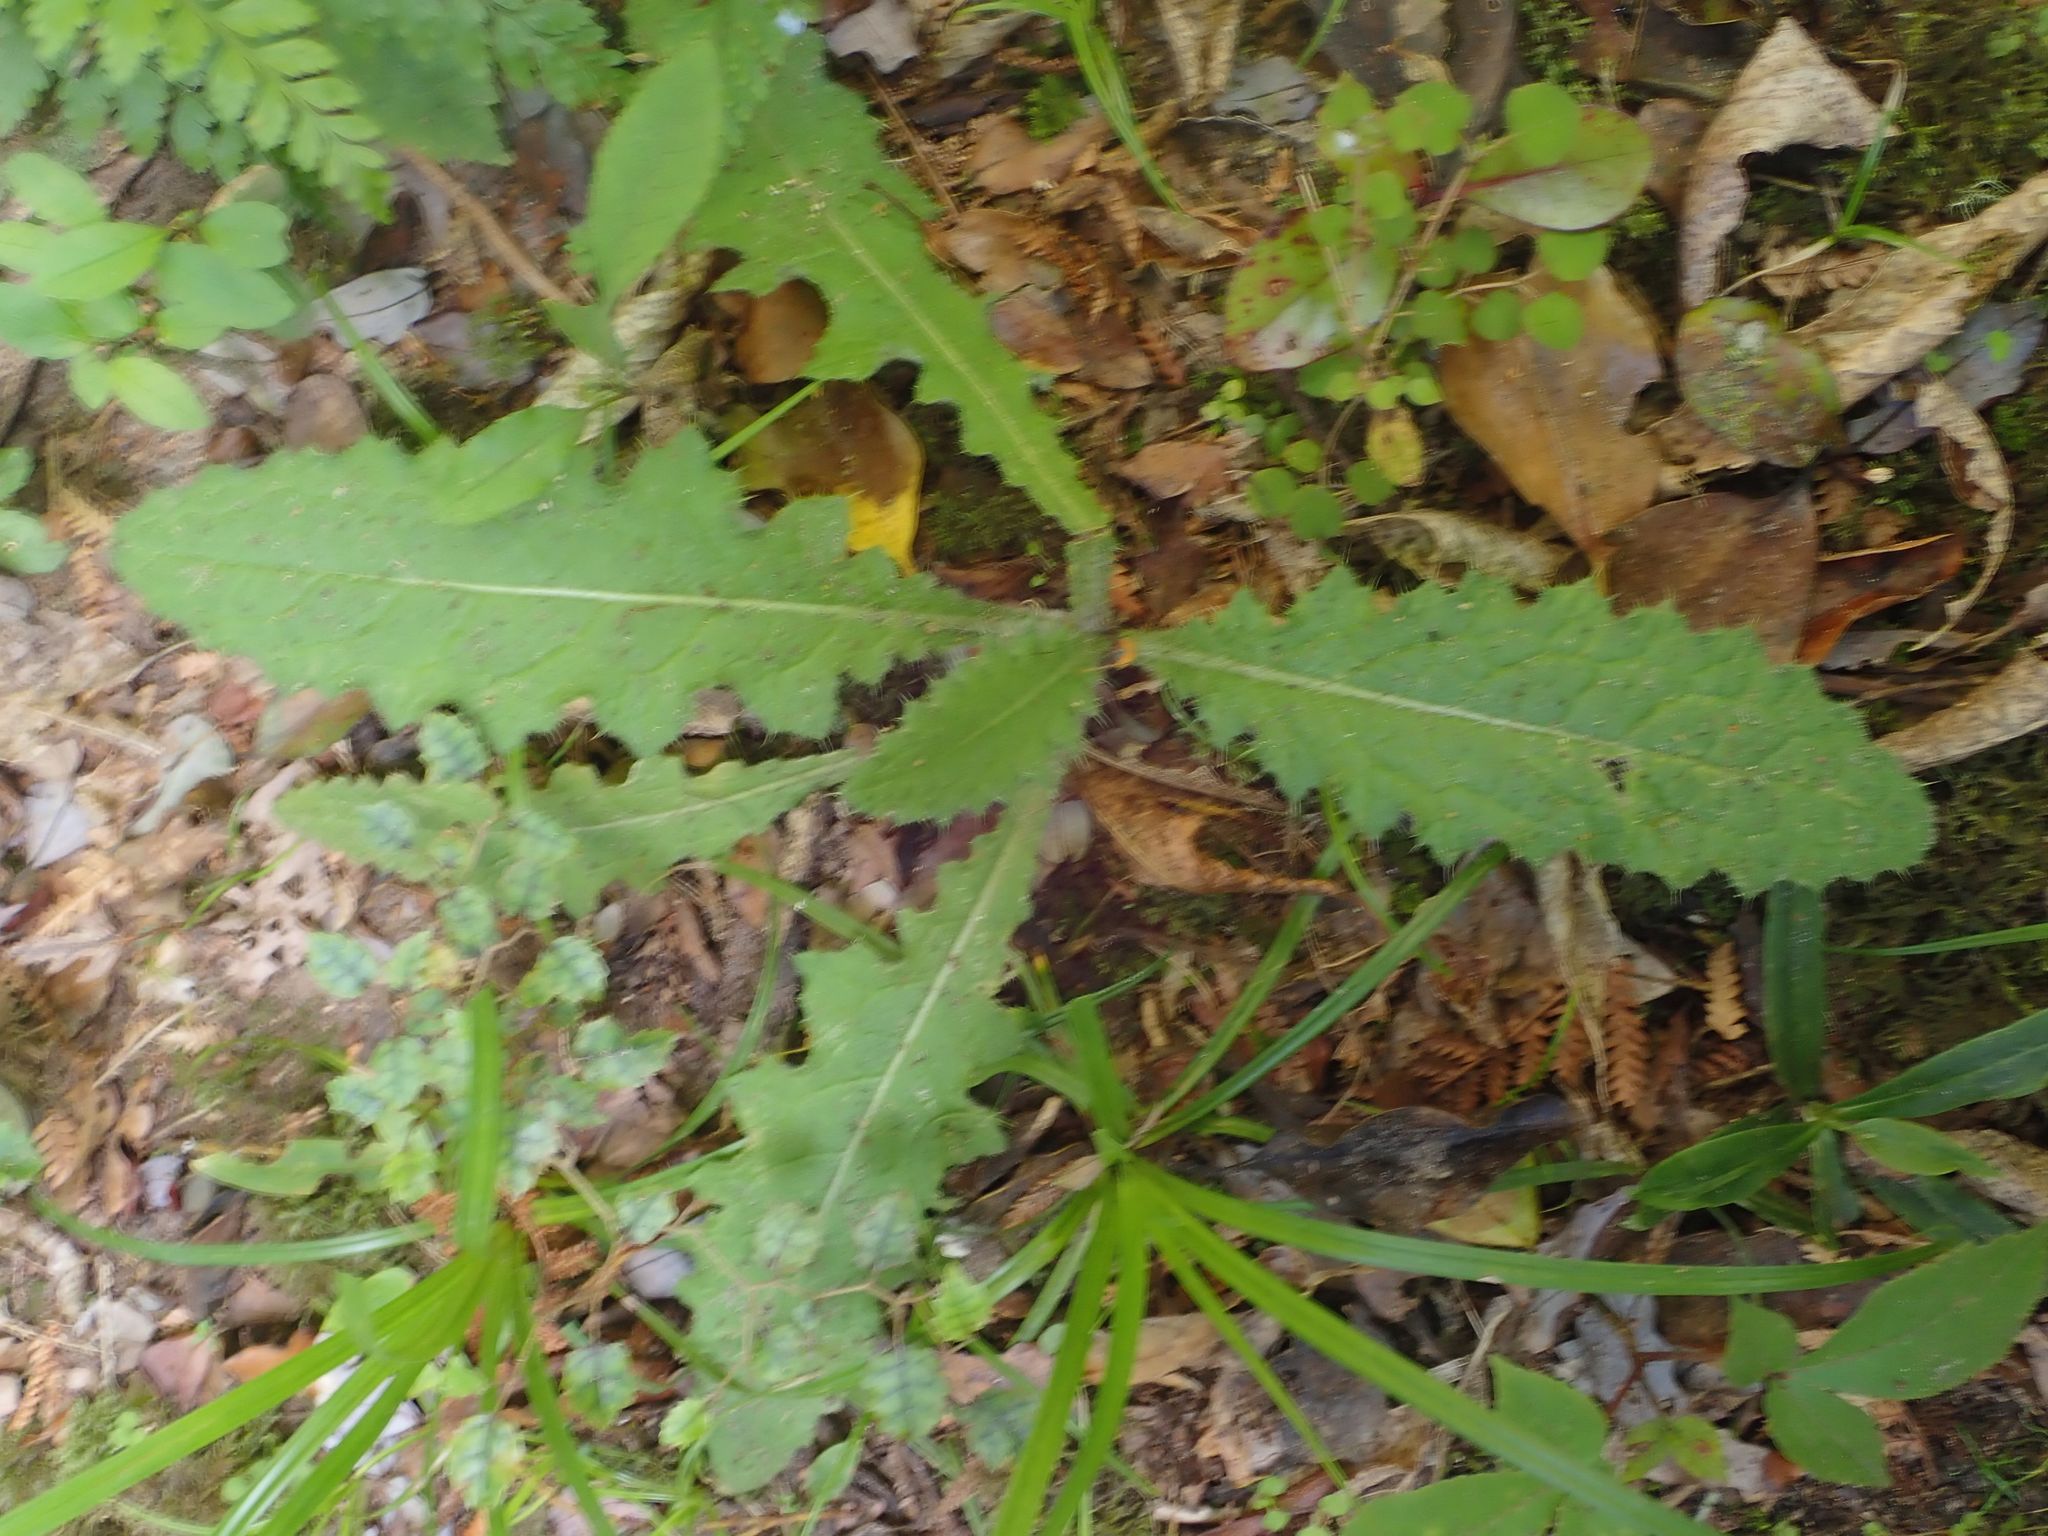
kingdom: Plantae
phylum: Tracheophyta
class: Magnoliopsida
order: Asterales
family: Asteraceae
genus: Cirsium
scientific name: Cirsium vulgare
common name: Bull thistle
